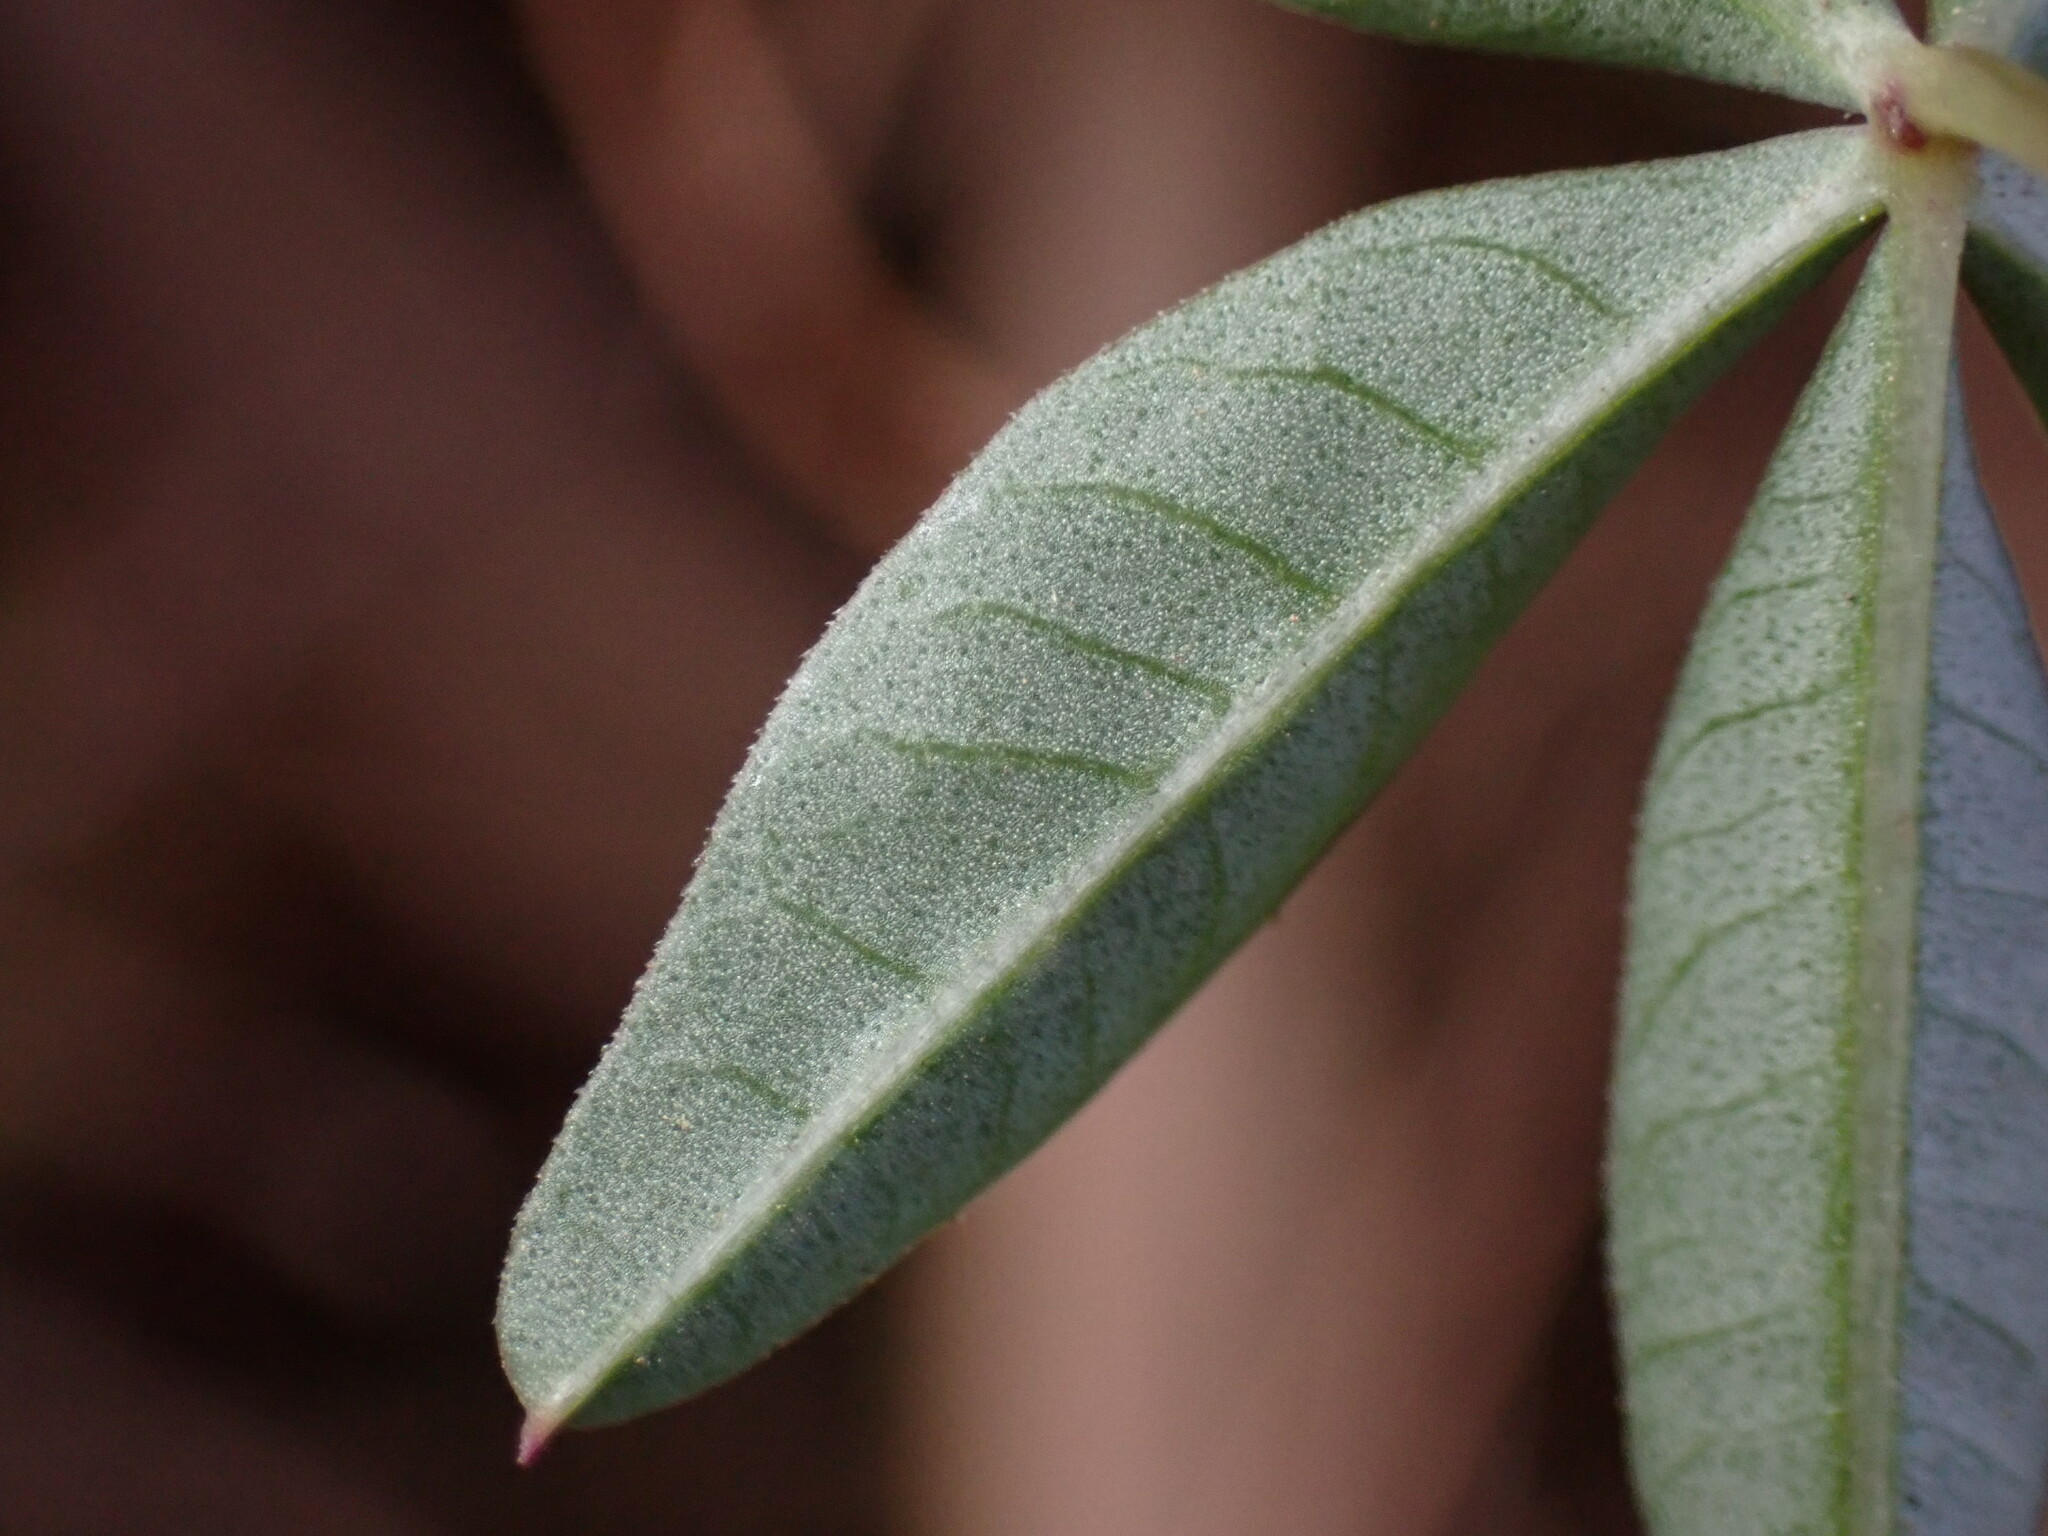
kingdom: Plantae
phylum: Tracheophyta
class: Magnoliopsida
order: Solanales
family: Convolvulaceae
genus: Ipomoea
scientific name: Ipomoea cairica
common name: Mile a minute vine
